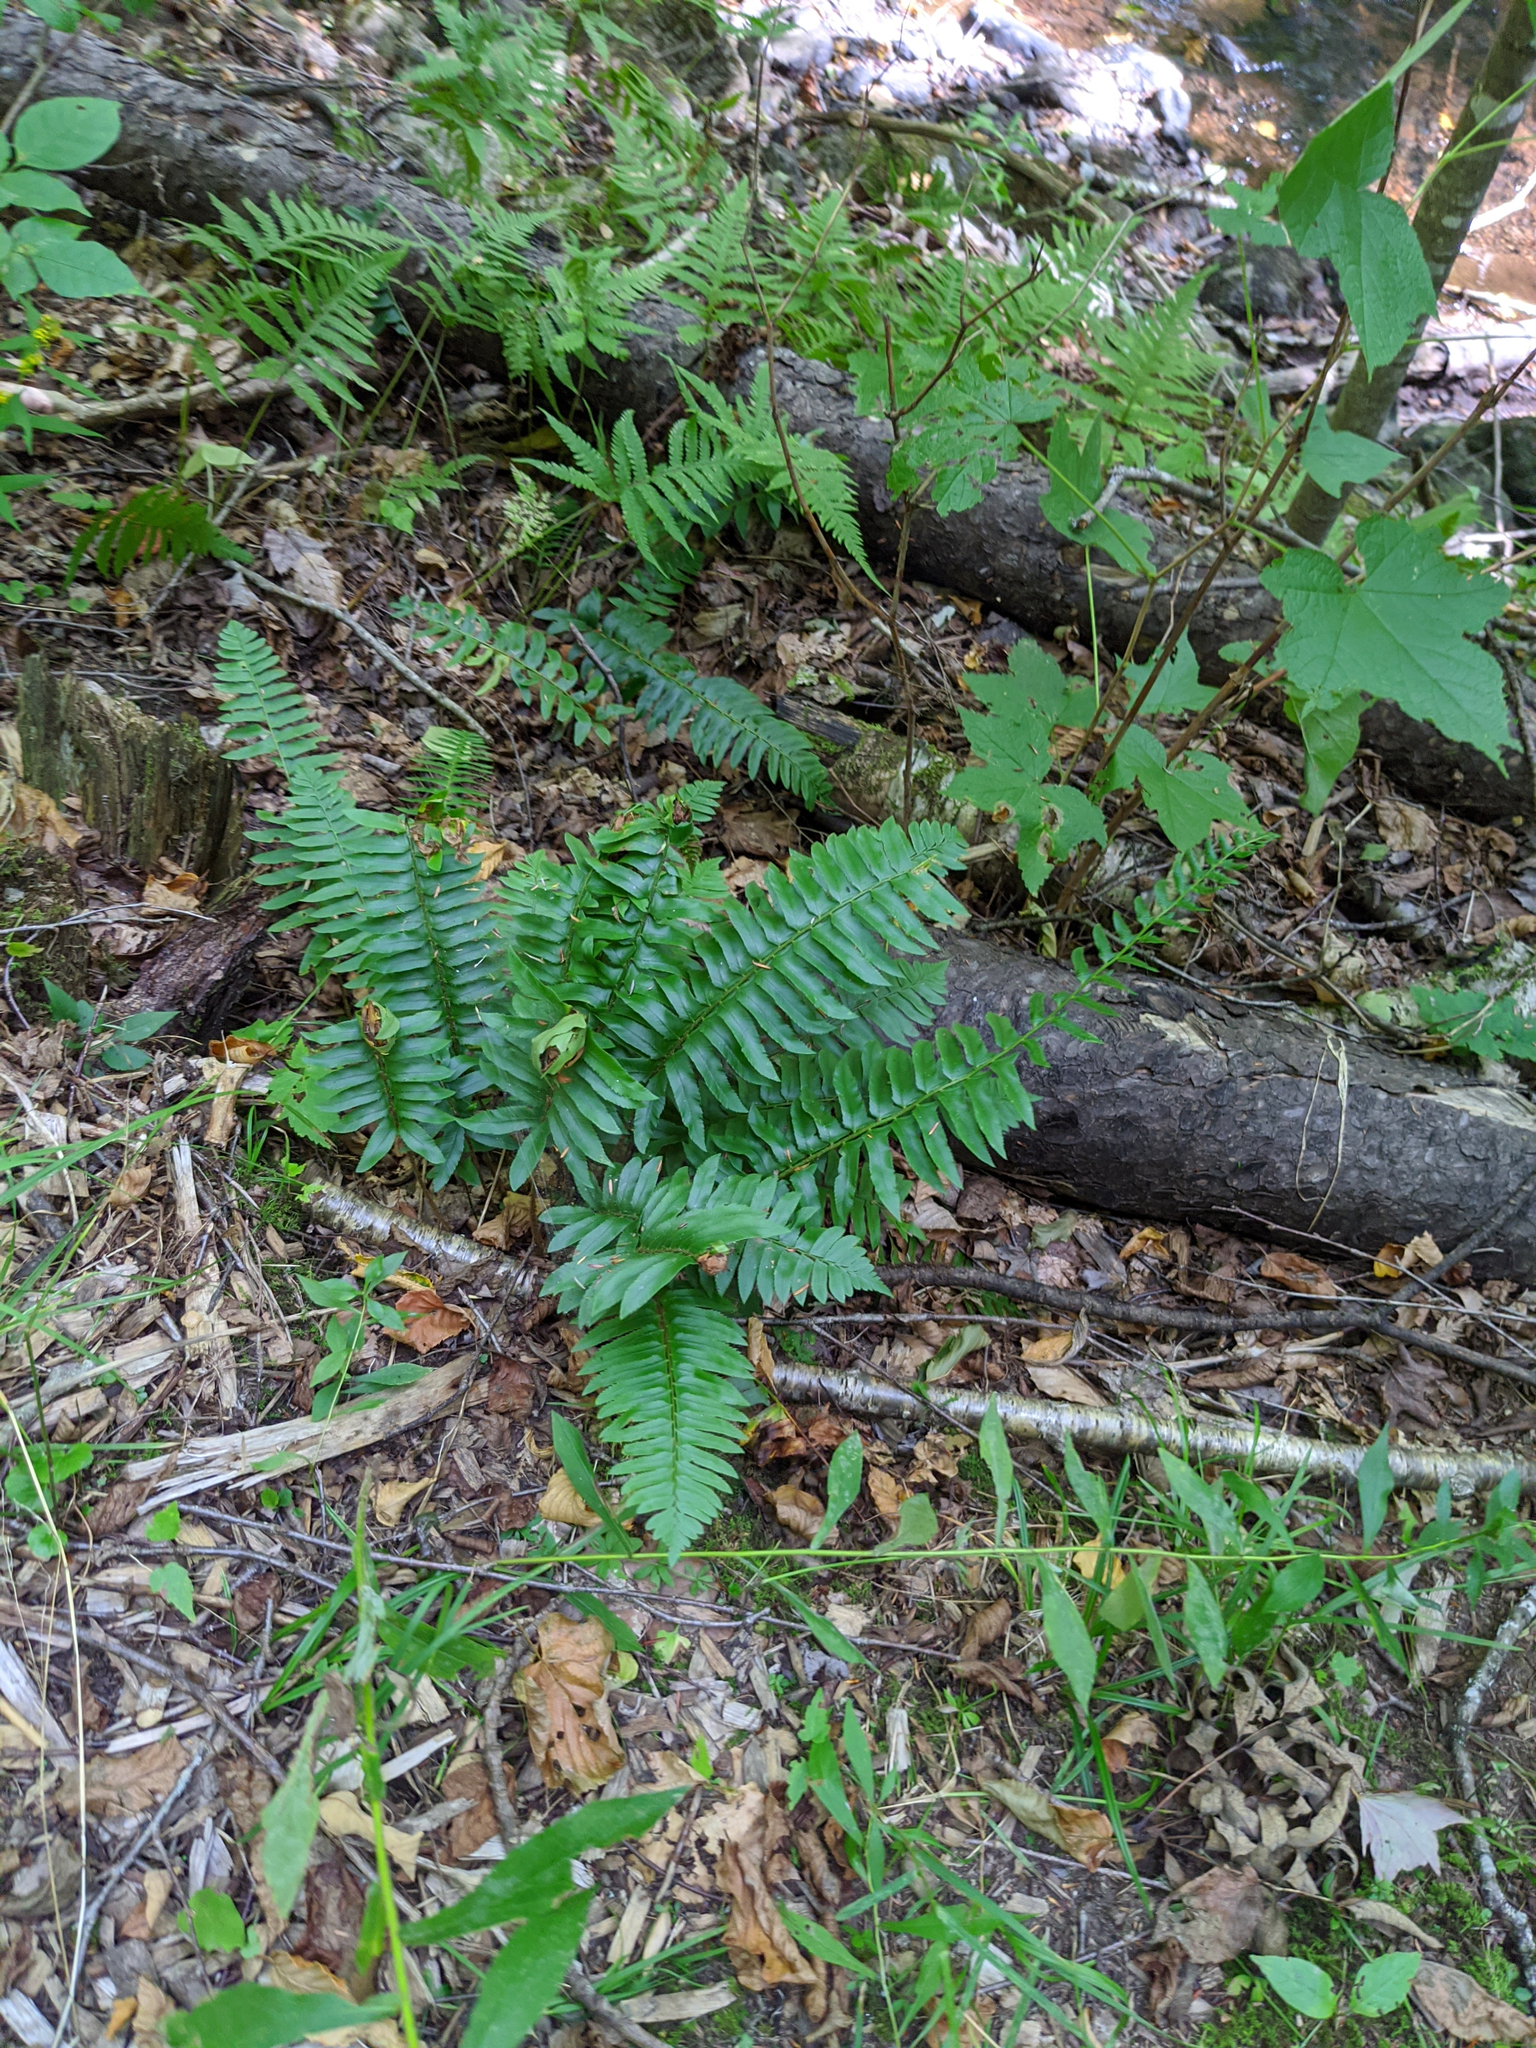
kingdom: Plantae
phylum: Tracheophyta
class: Polypodiopsida
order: Polypodiales
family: Dryopteridaceae
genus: Polystichum
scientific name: Polystichum acrostichoides
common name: Christmas fern
